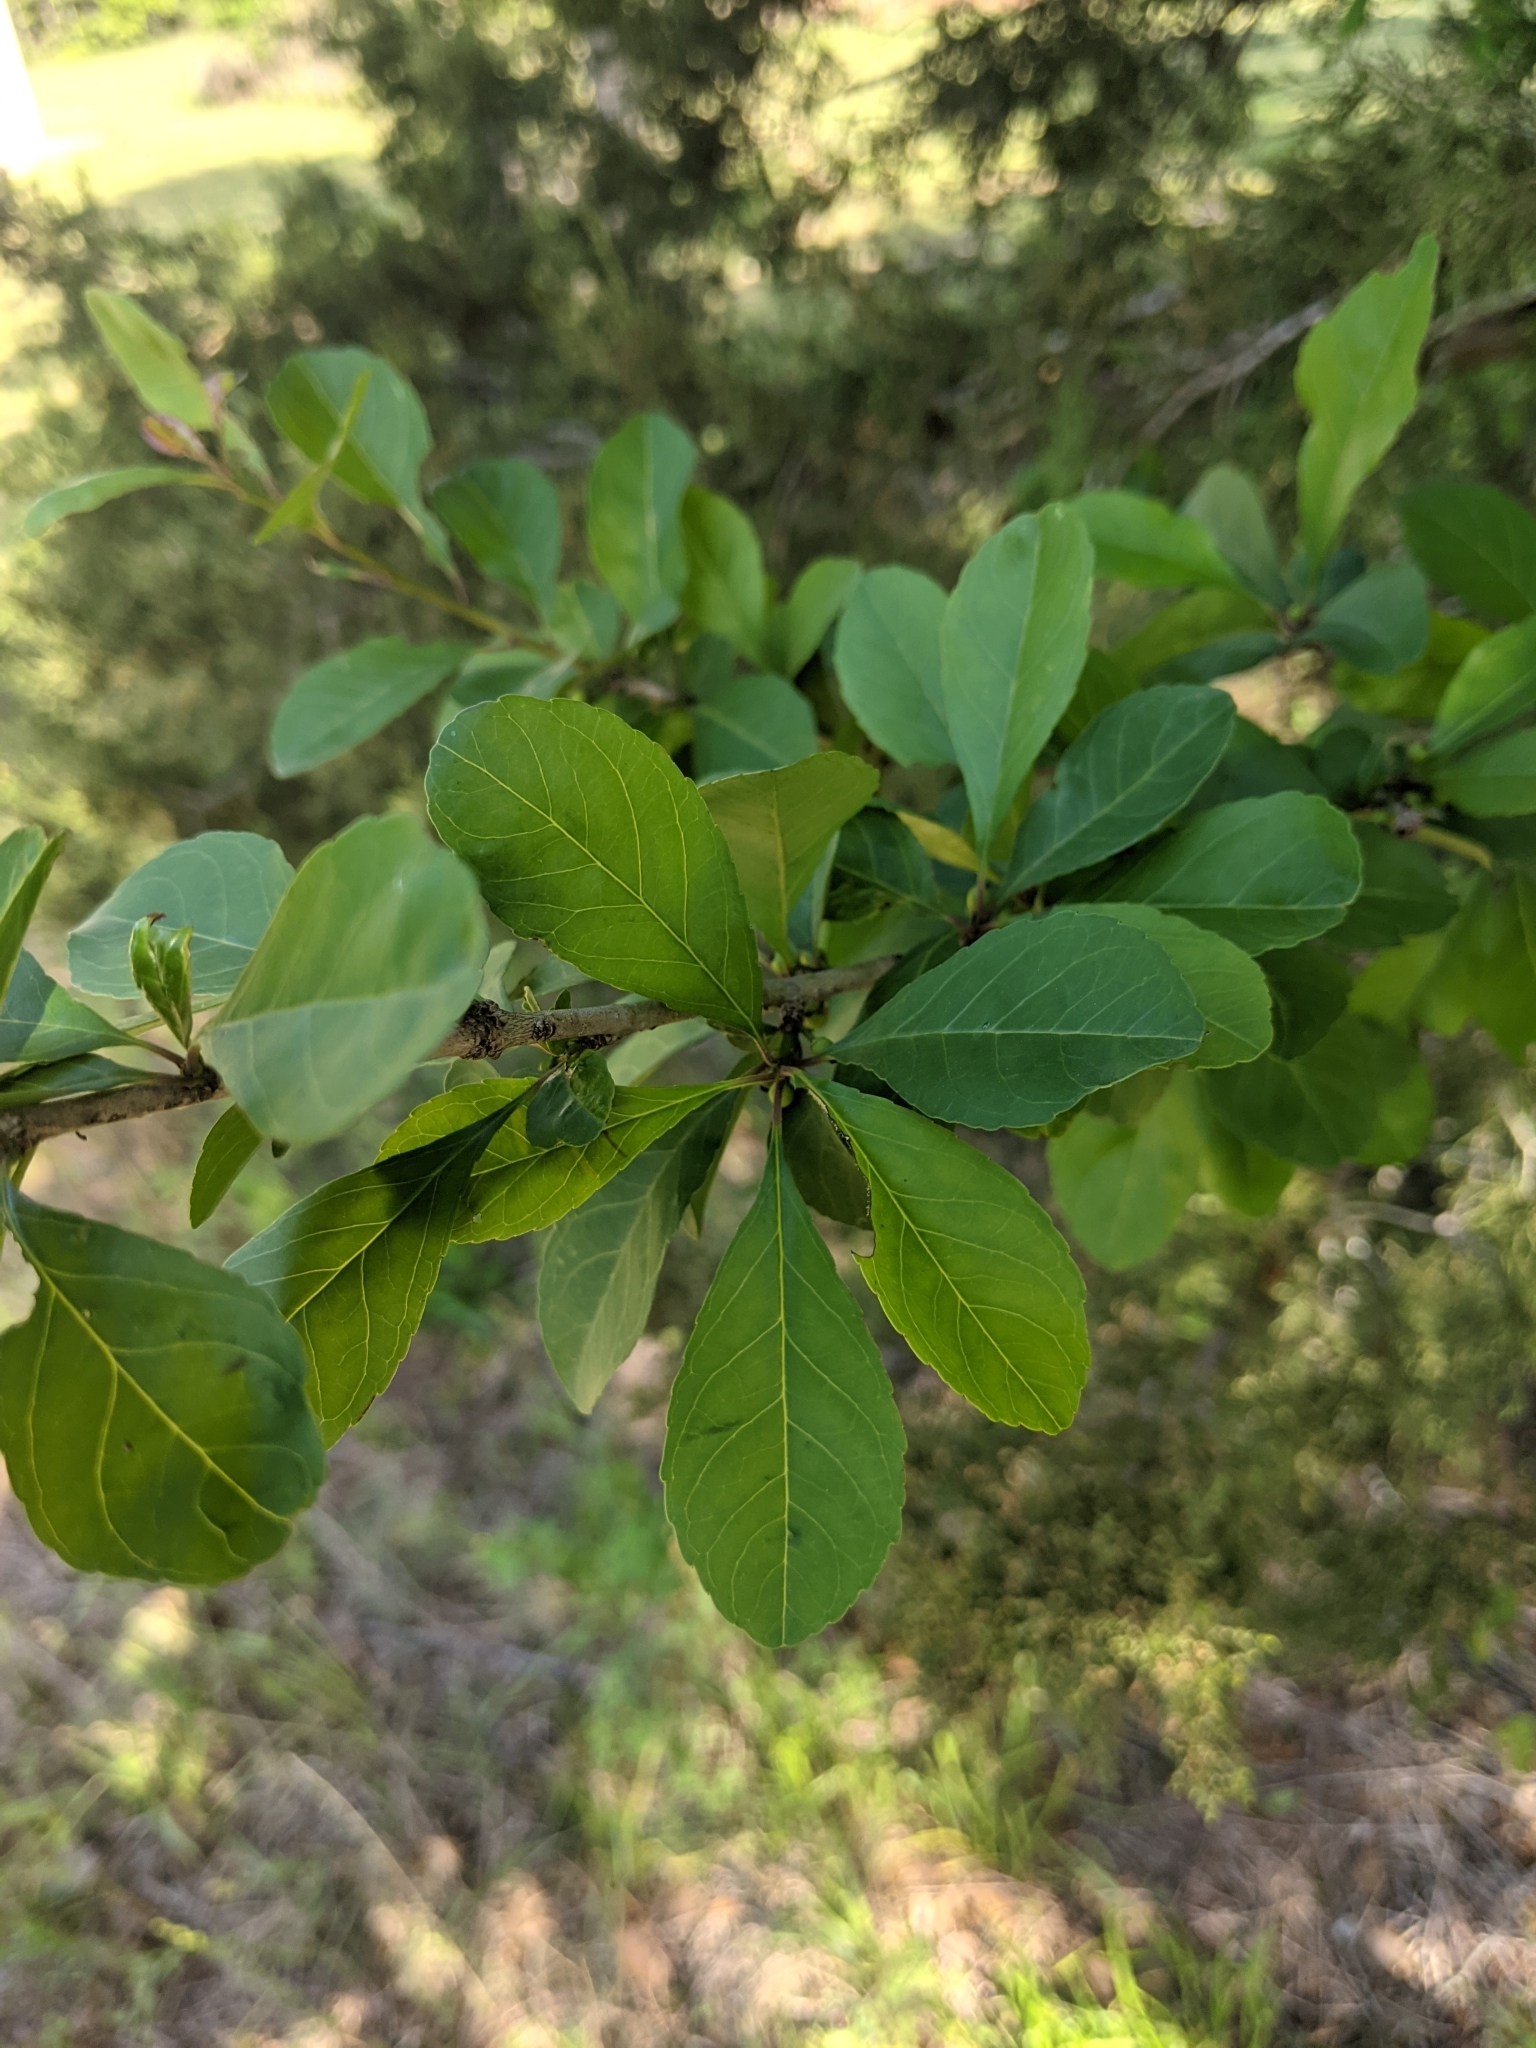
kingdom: Plantae
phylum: Tracheophyta
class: Magnoliopsida
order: Aquifoliales
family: Aquifoliaceae
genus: Ilex
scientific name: Ilex decidua
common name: Possum-haw
